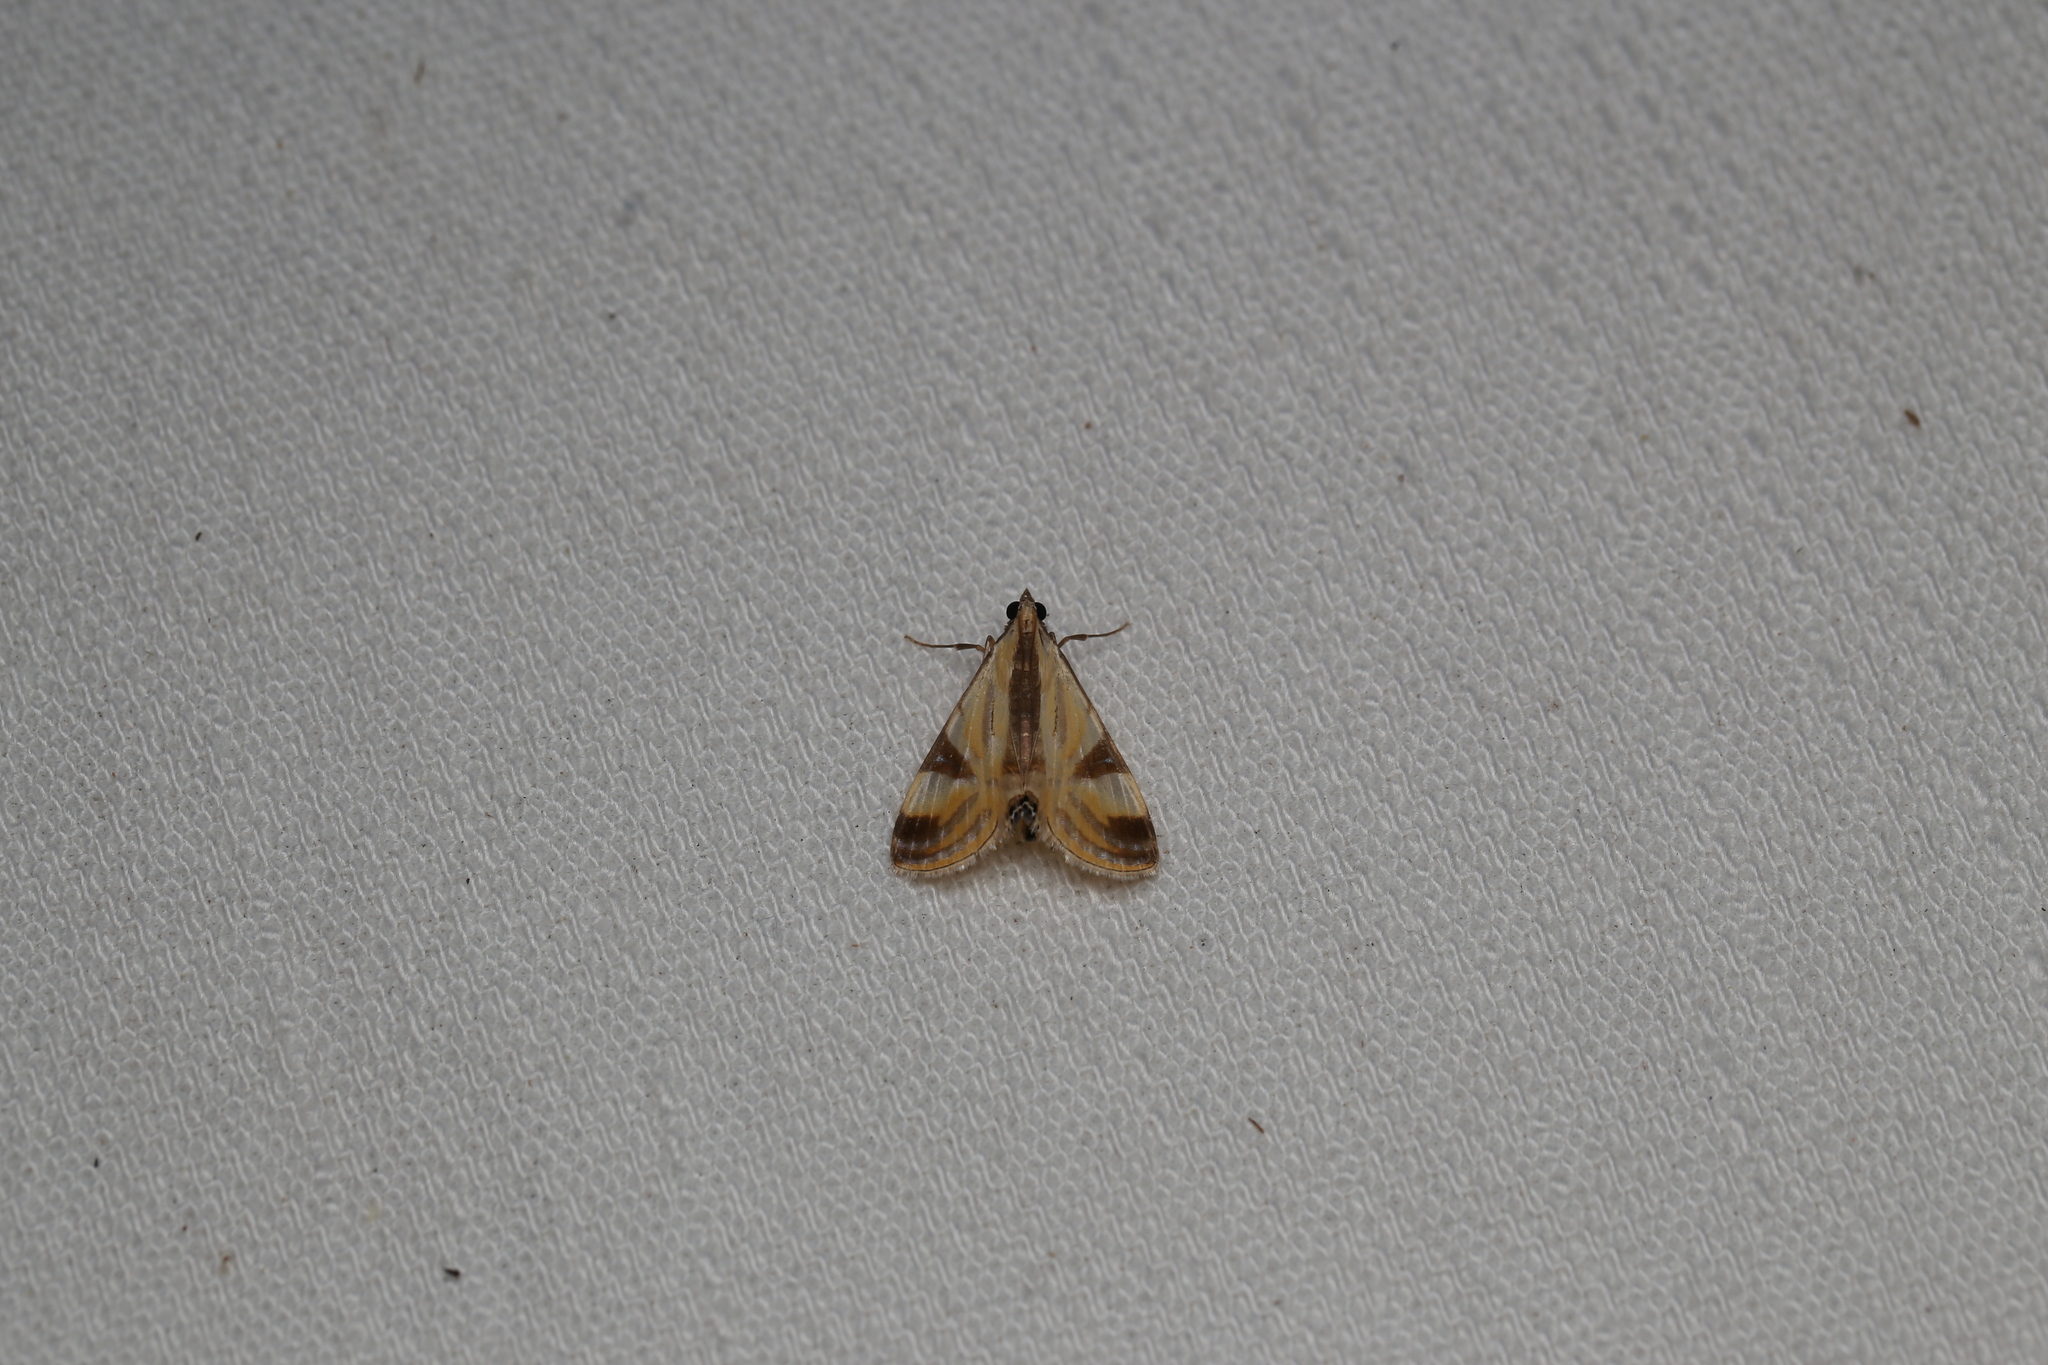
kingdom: Animalia
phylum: Arthropoda
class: Insecta
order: Lepidoptera
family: Crambidae
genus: Talanga
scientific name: Talanga tolumnialis
